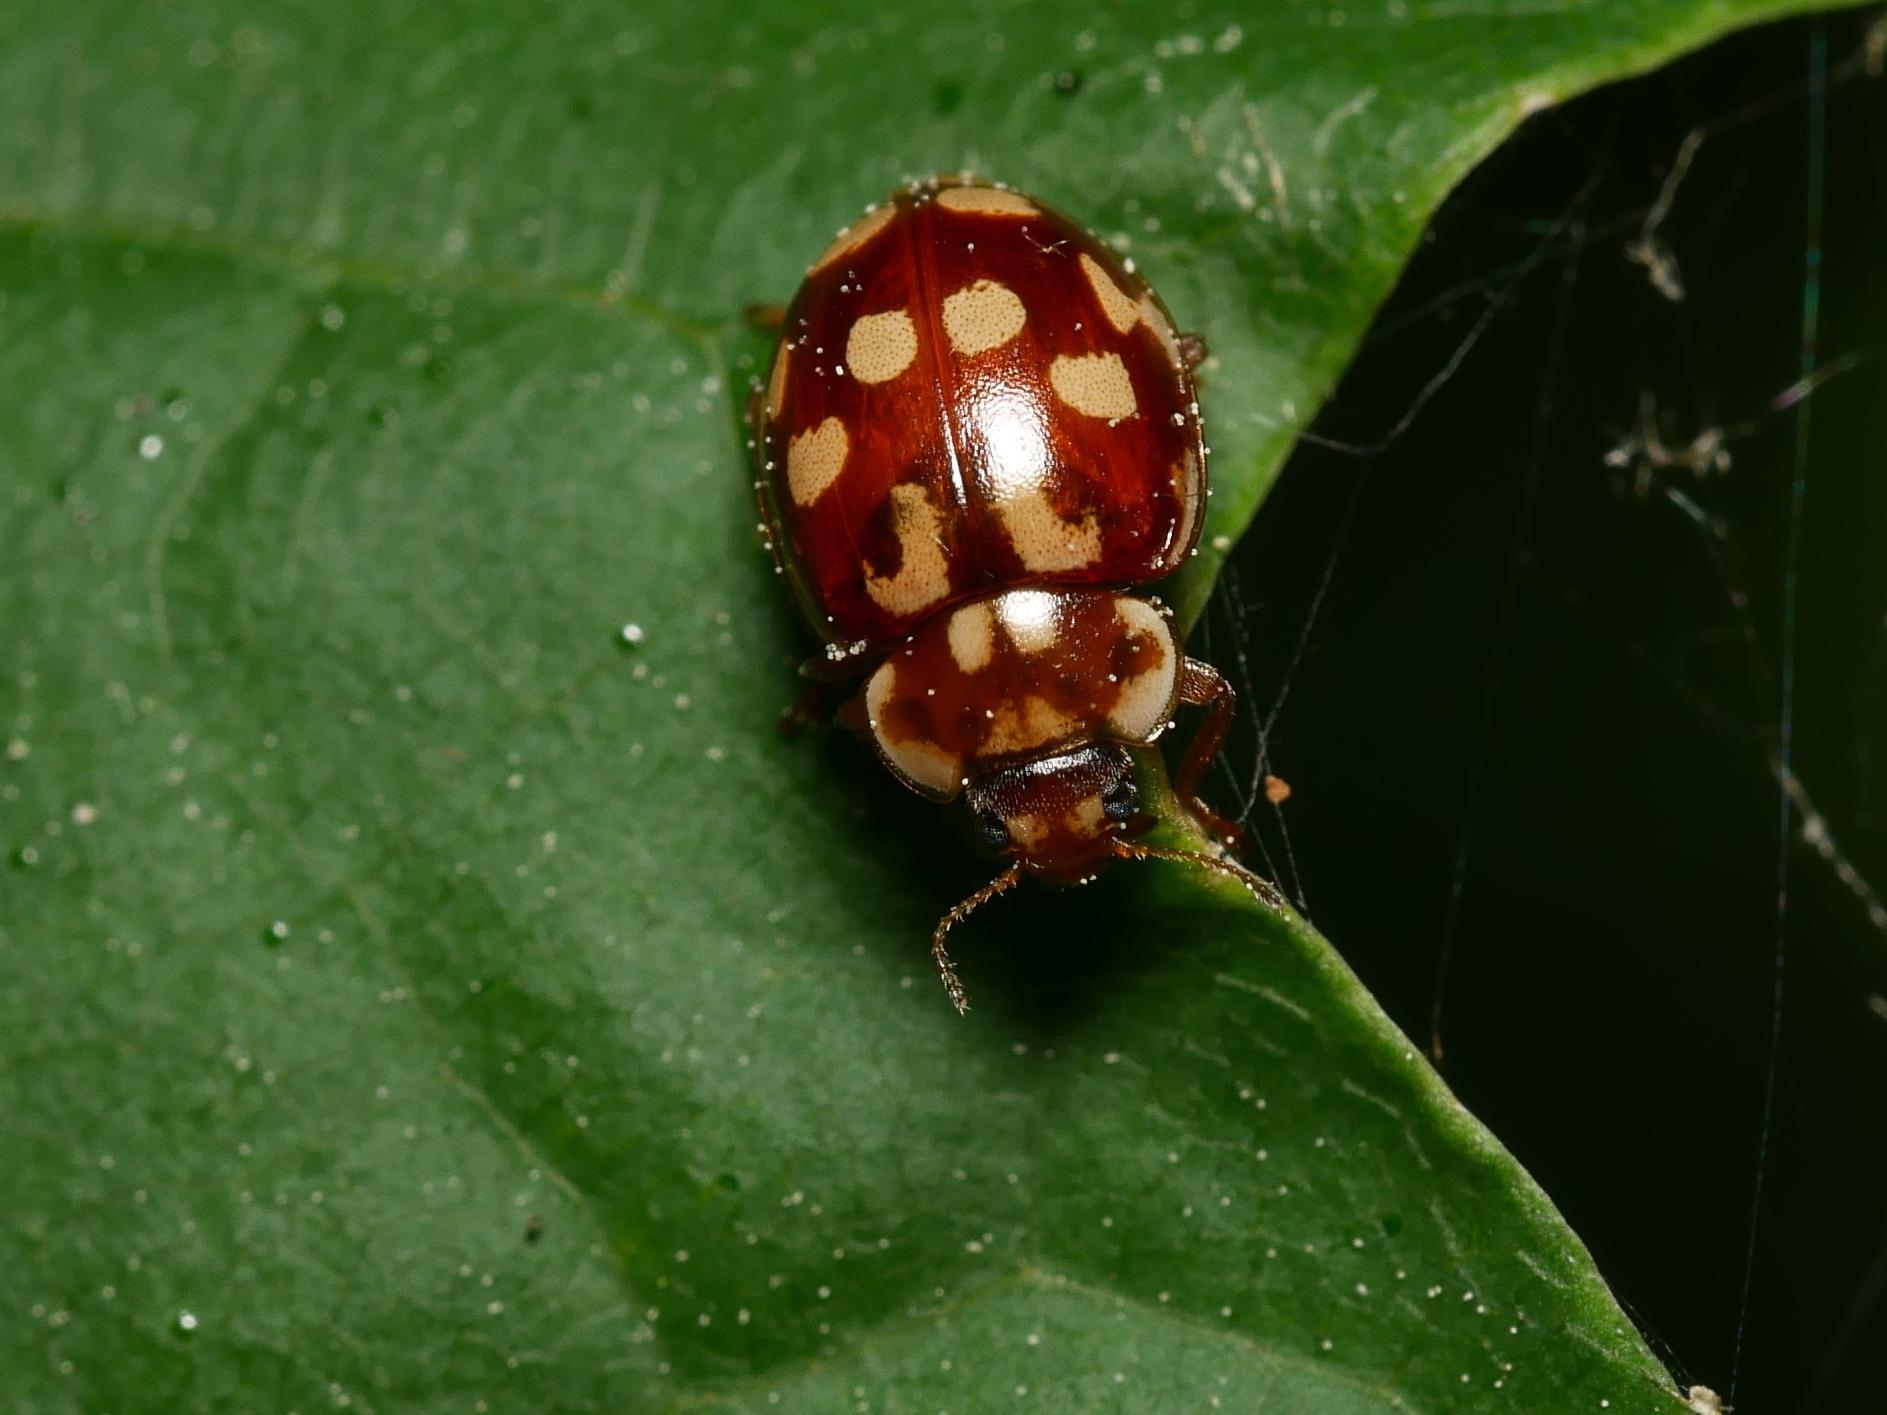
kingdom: Animalia
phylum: Arthropoda
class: Insecta
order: Coleoptera
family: Coccinellidae
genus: Myrrha
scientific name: Myrrha octodecimguttata
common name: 18-spot ladybird
